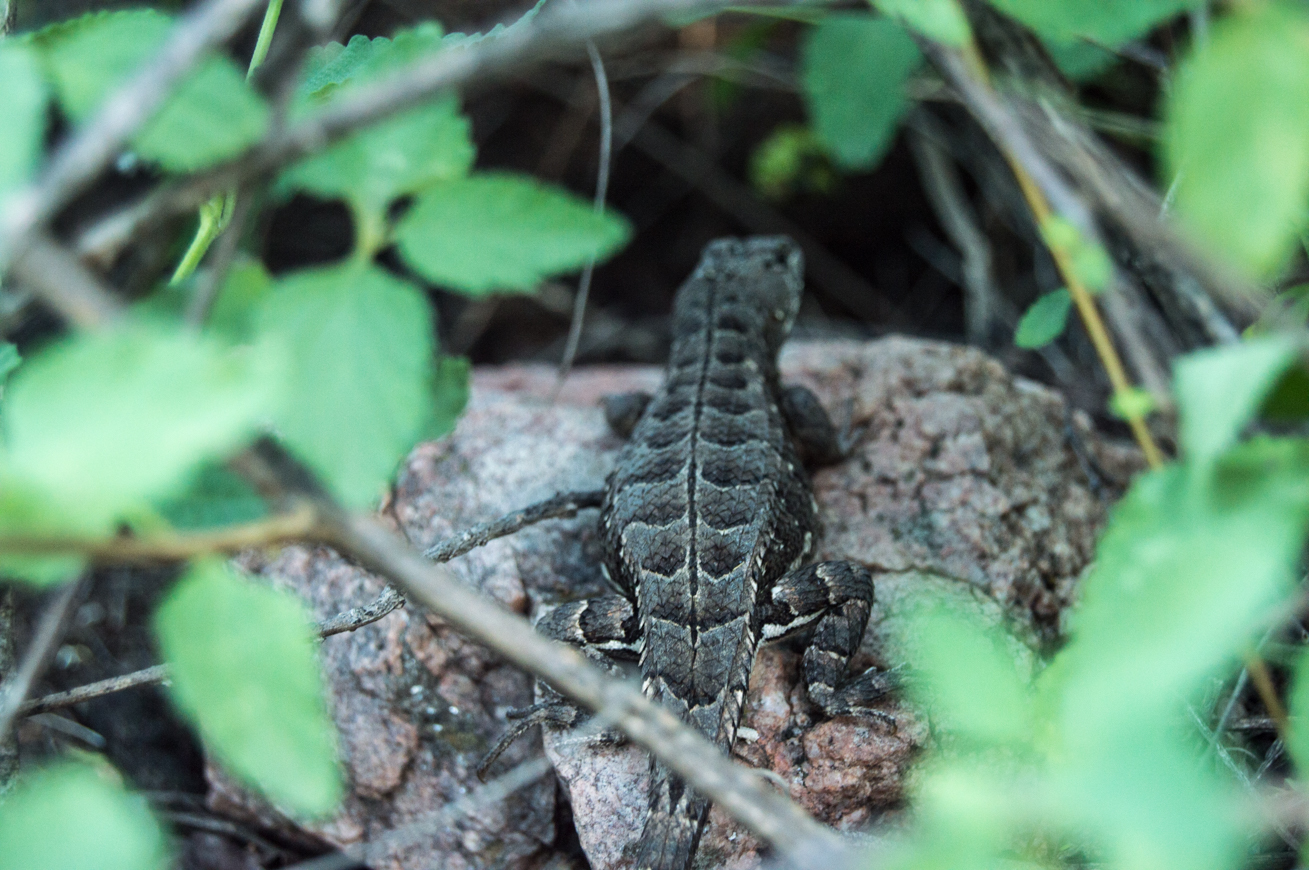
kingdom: Animalia
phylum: Chordata
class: Squamata
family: Tropiduridae
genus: Stenocercus
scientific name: Stenocercus doellojuradoi
